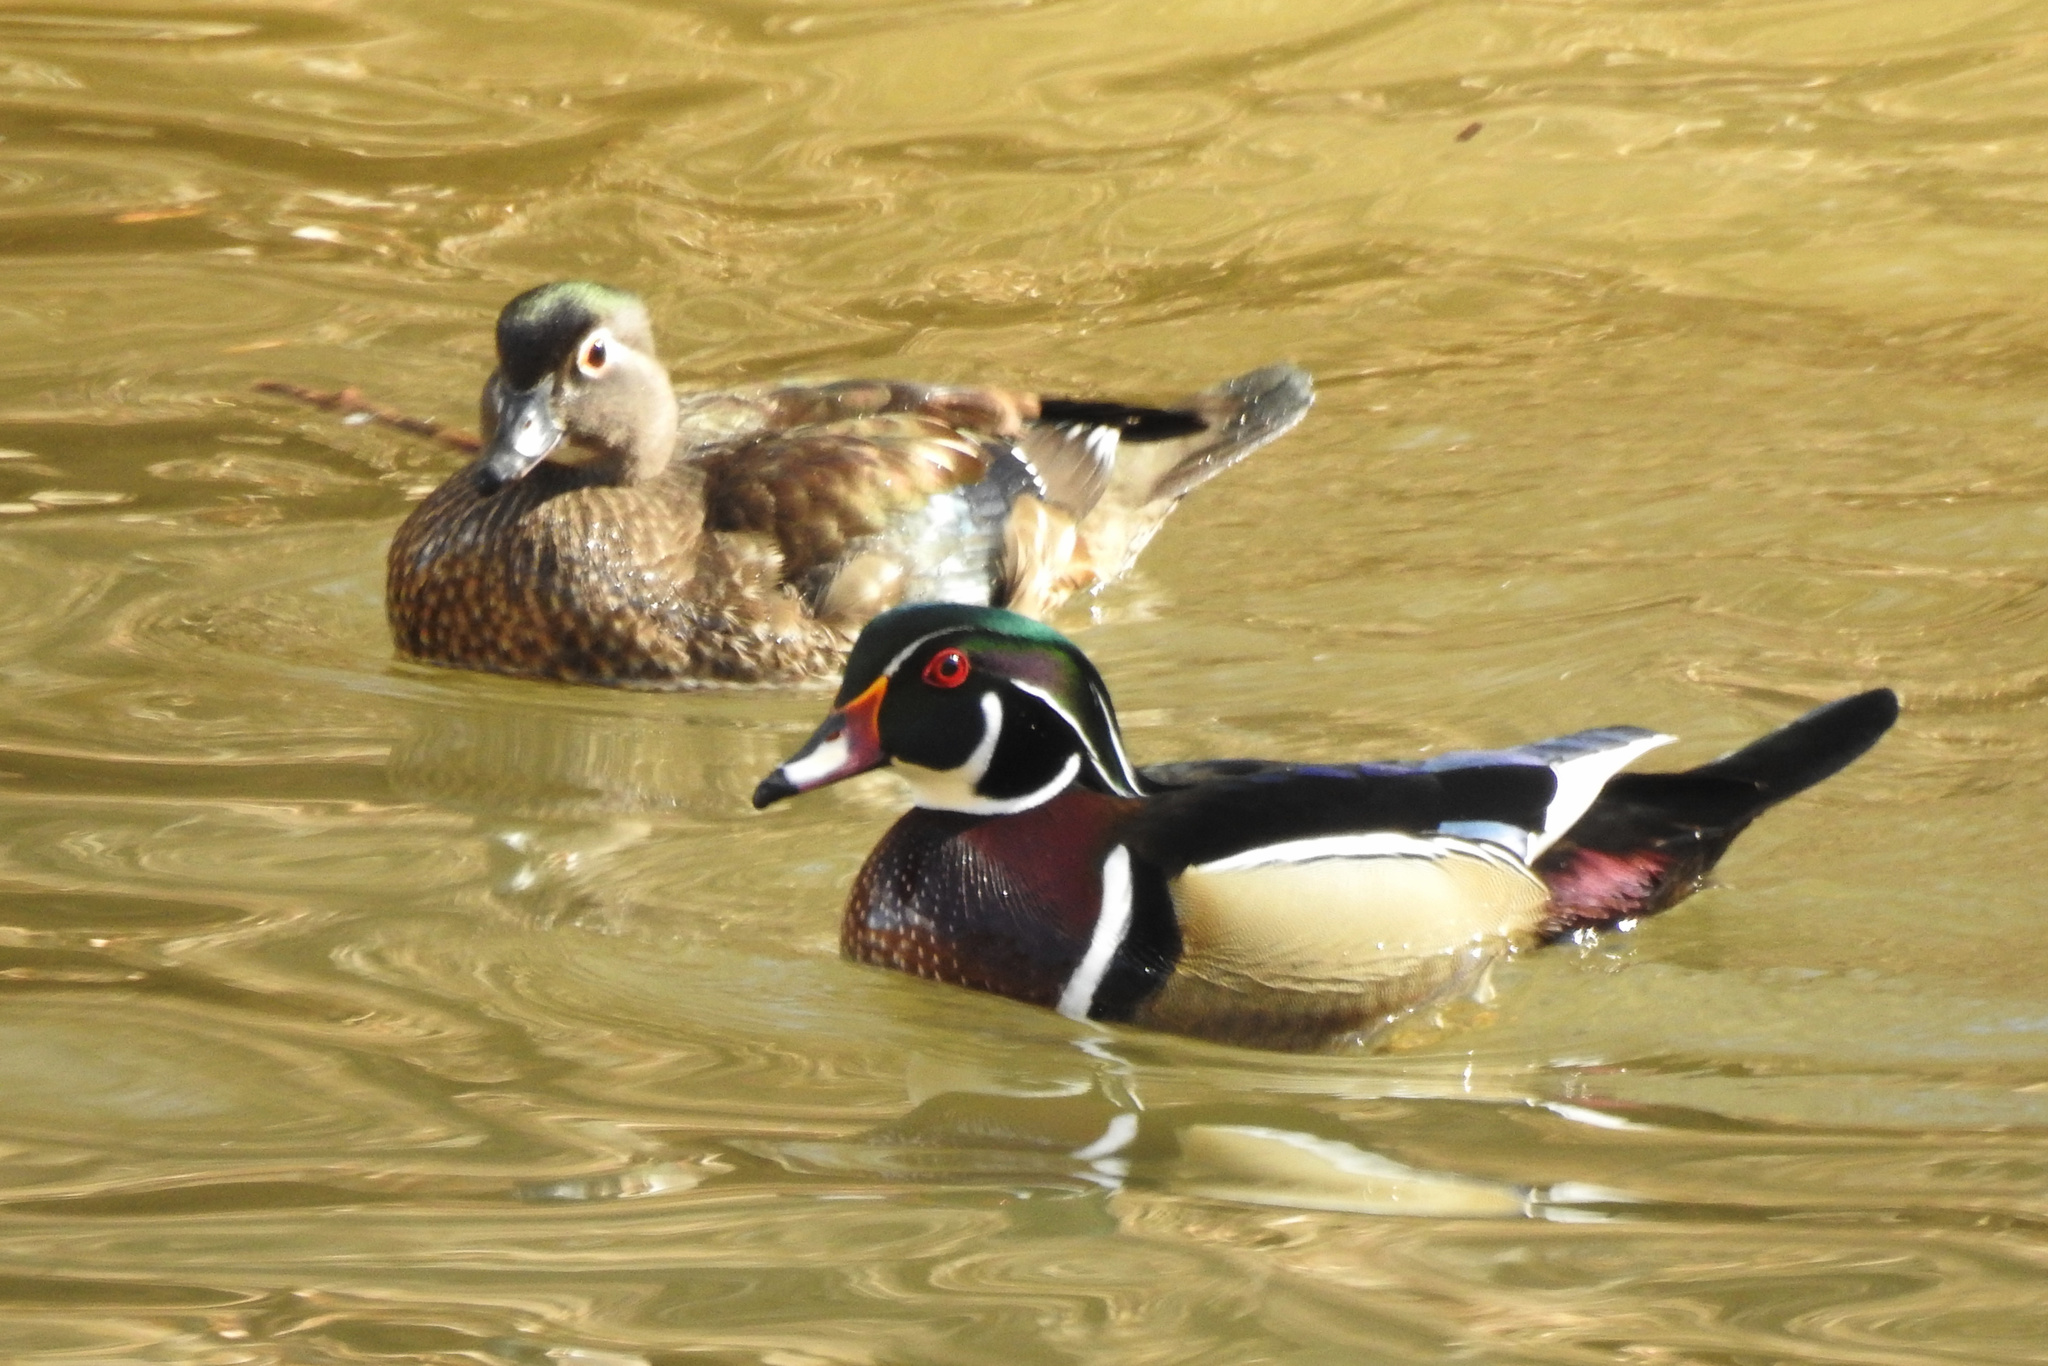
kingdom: Animalia
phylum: Chordata
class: Aves
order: Anseriformes
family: Anatidae
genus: Aix
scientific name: Aix sponsa
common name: Wood duck
